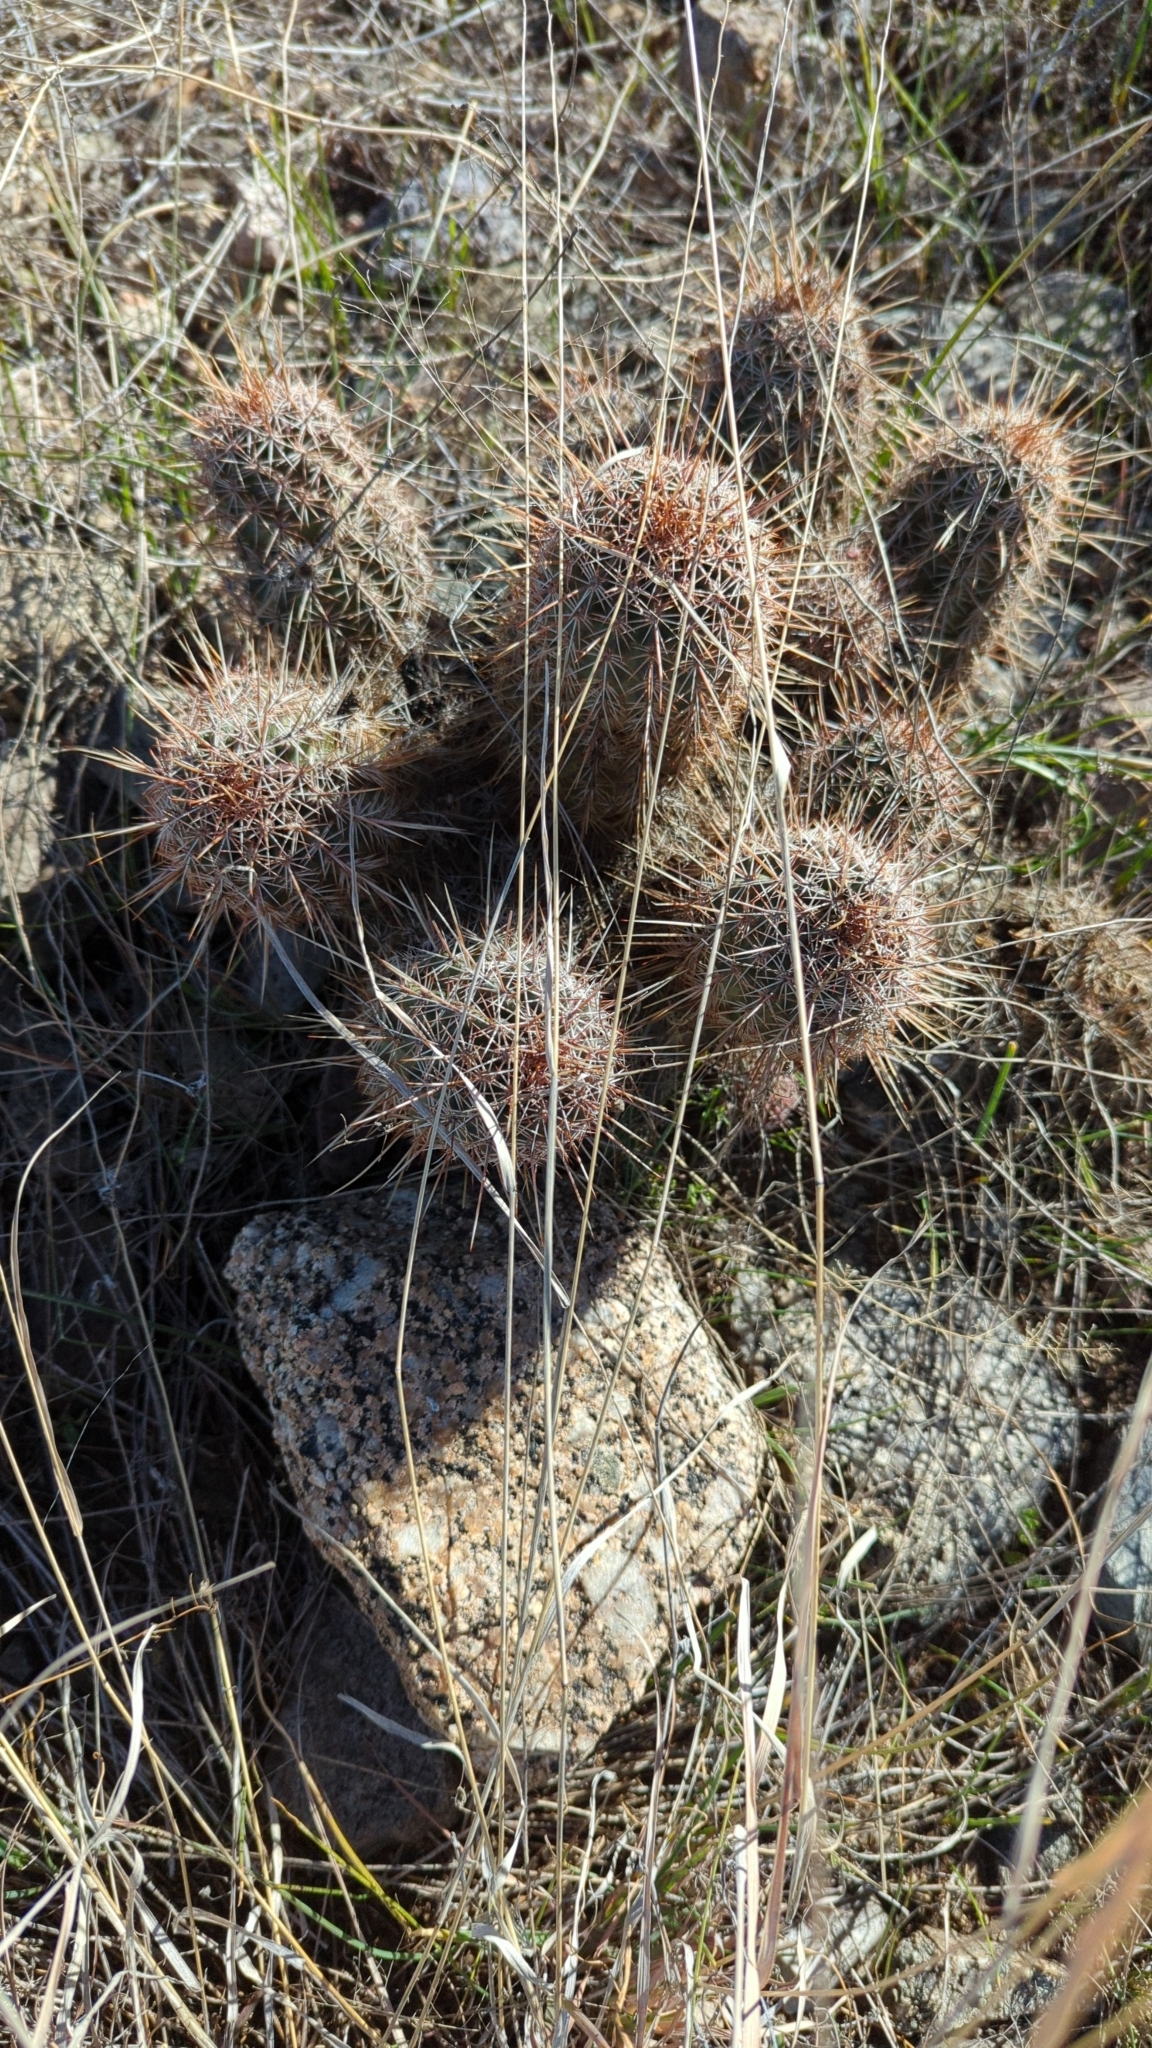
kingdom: Plantae
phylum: Tracheophyta
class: Magnoliopsida
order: Caryophyllales
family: Cactaceae
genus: Echinocereus
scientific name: Echinocereus fasciculatus
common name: Bundle hedgehog
